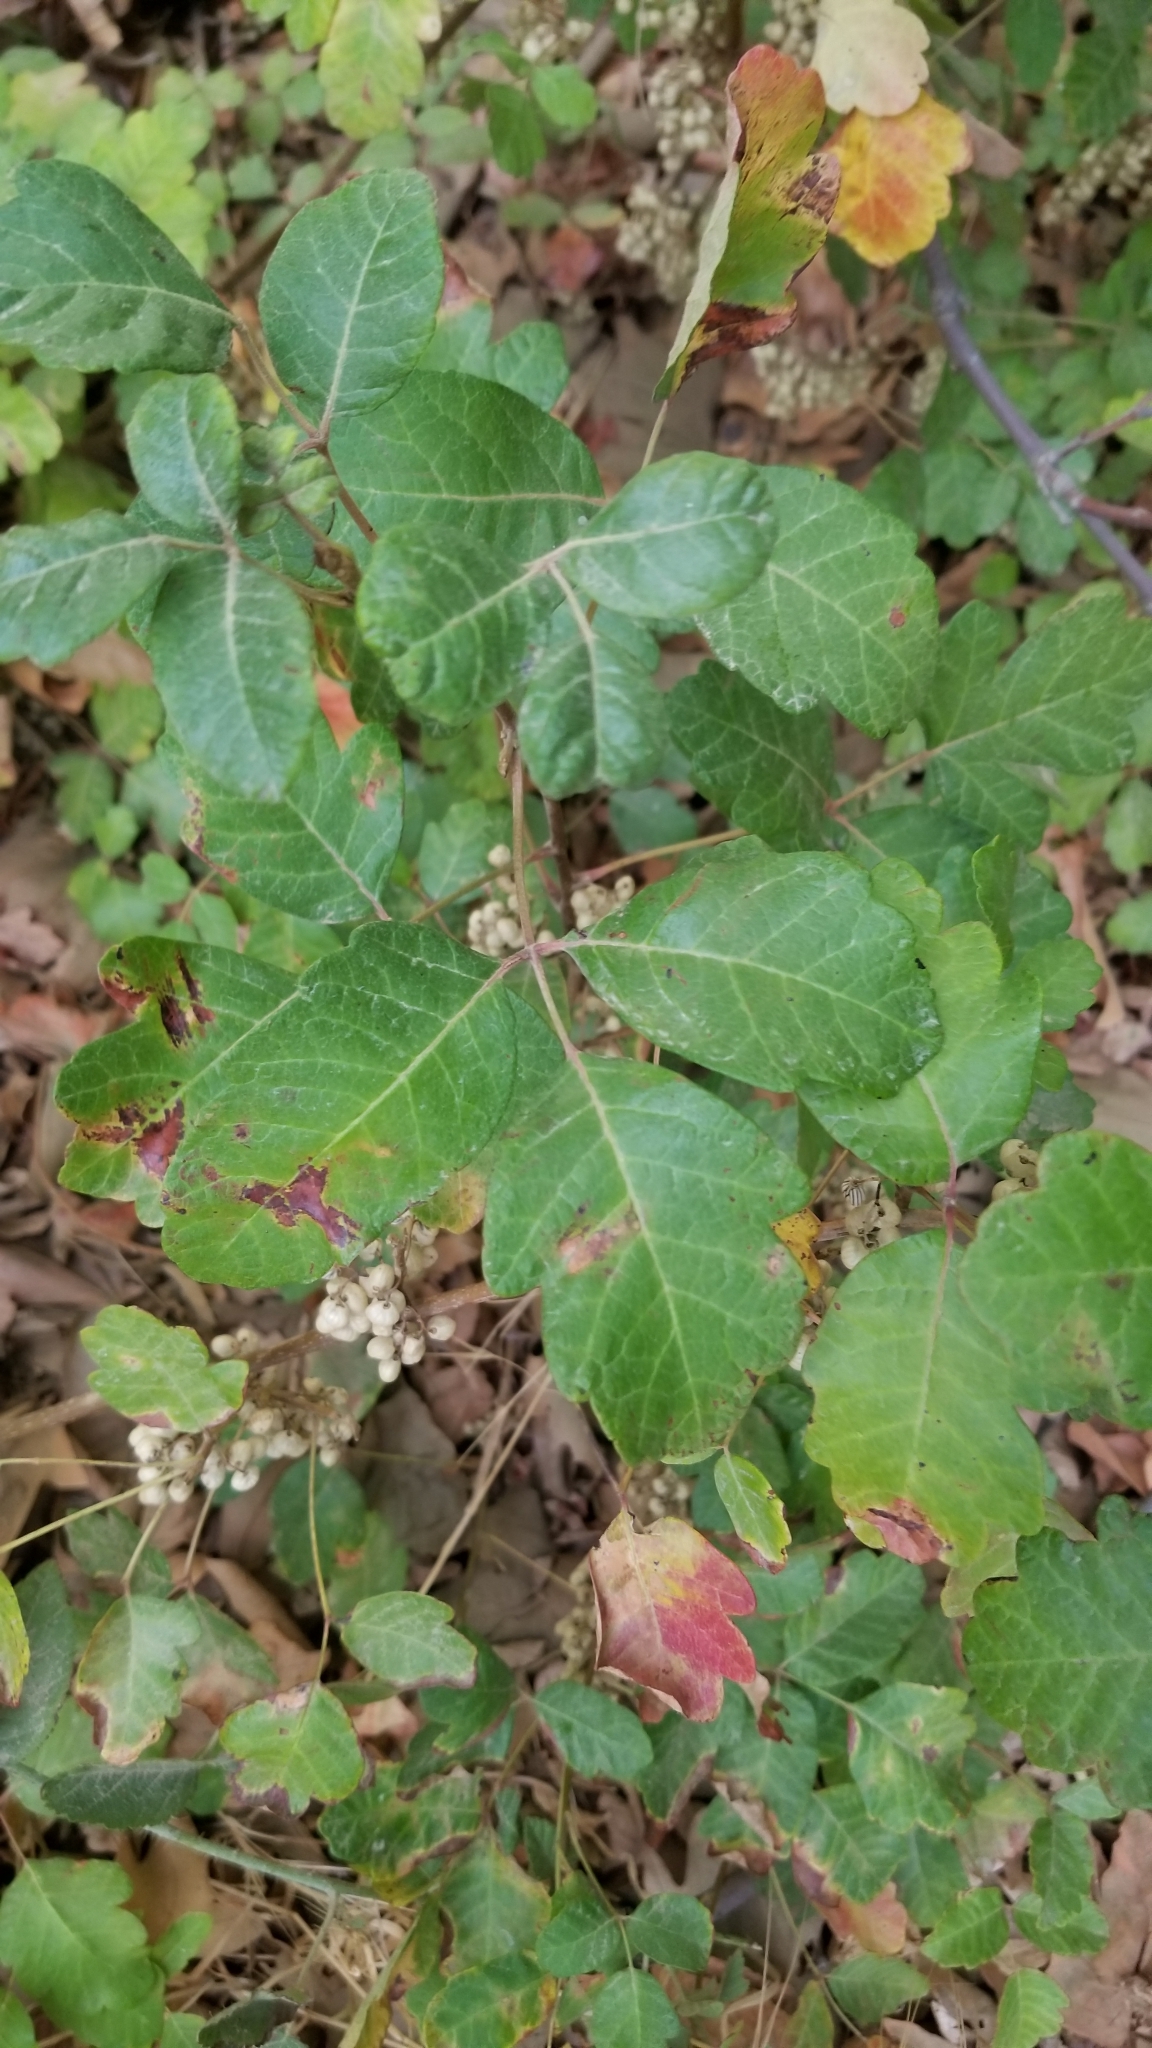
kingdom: Plantae
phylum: Tracheophyta
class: Magnoliopsida
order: Sapindales
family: Anacardiaceae
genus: Toxicodendron
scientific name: Toxicodendron diversilobum
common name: Pacific poison-oak
